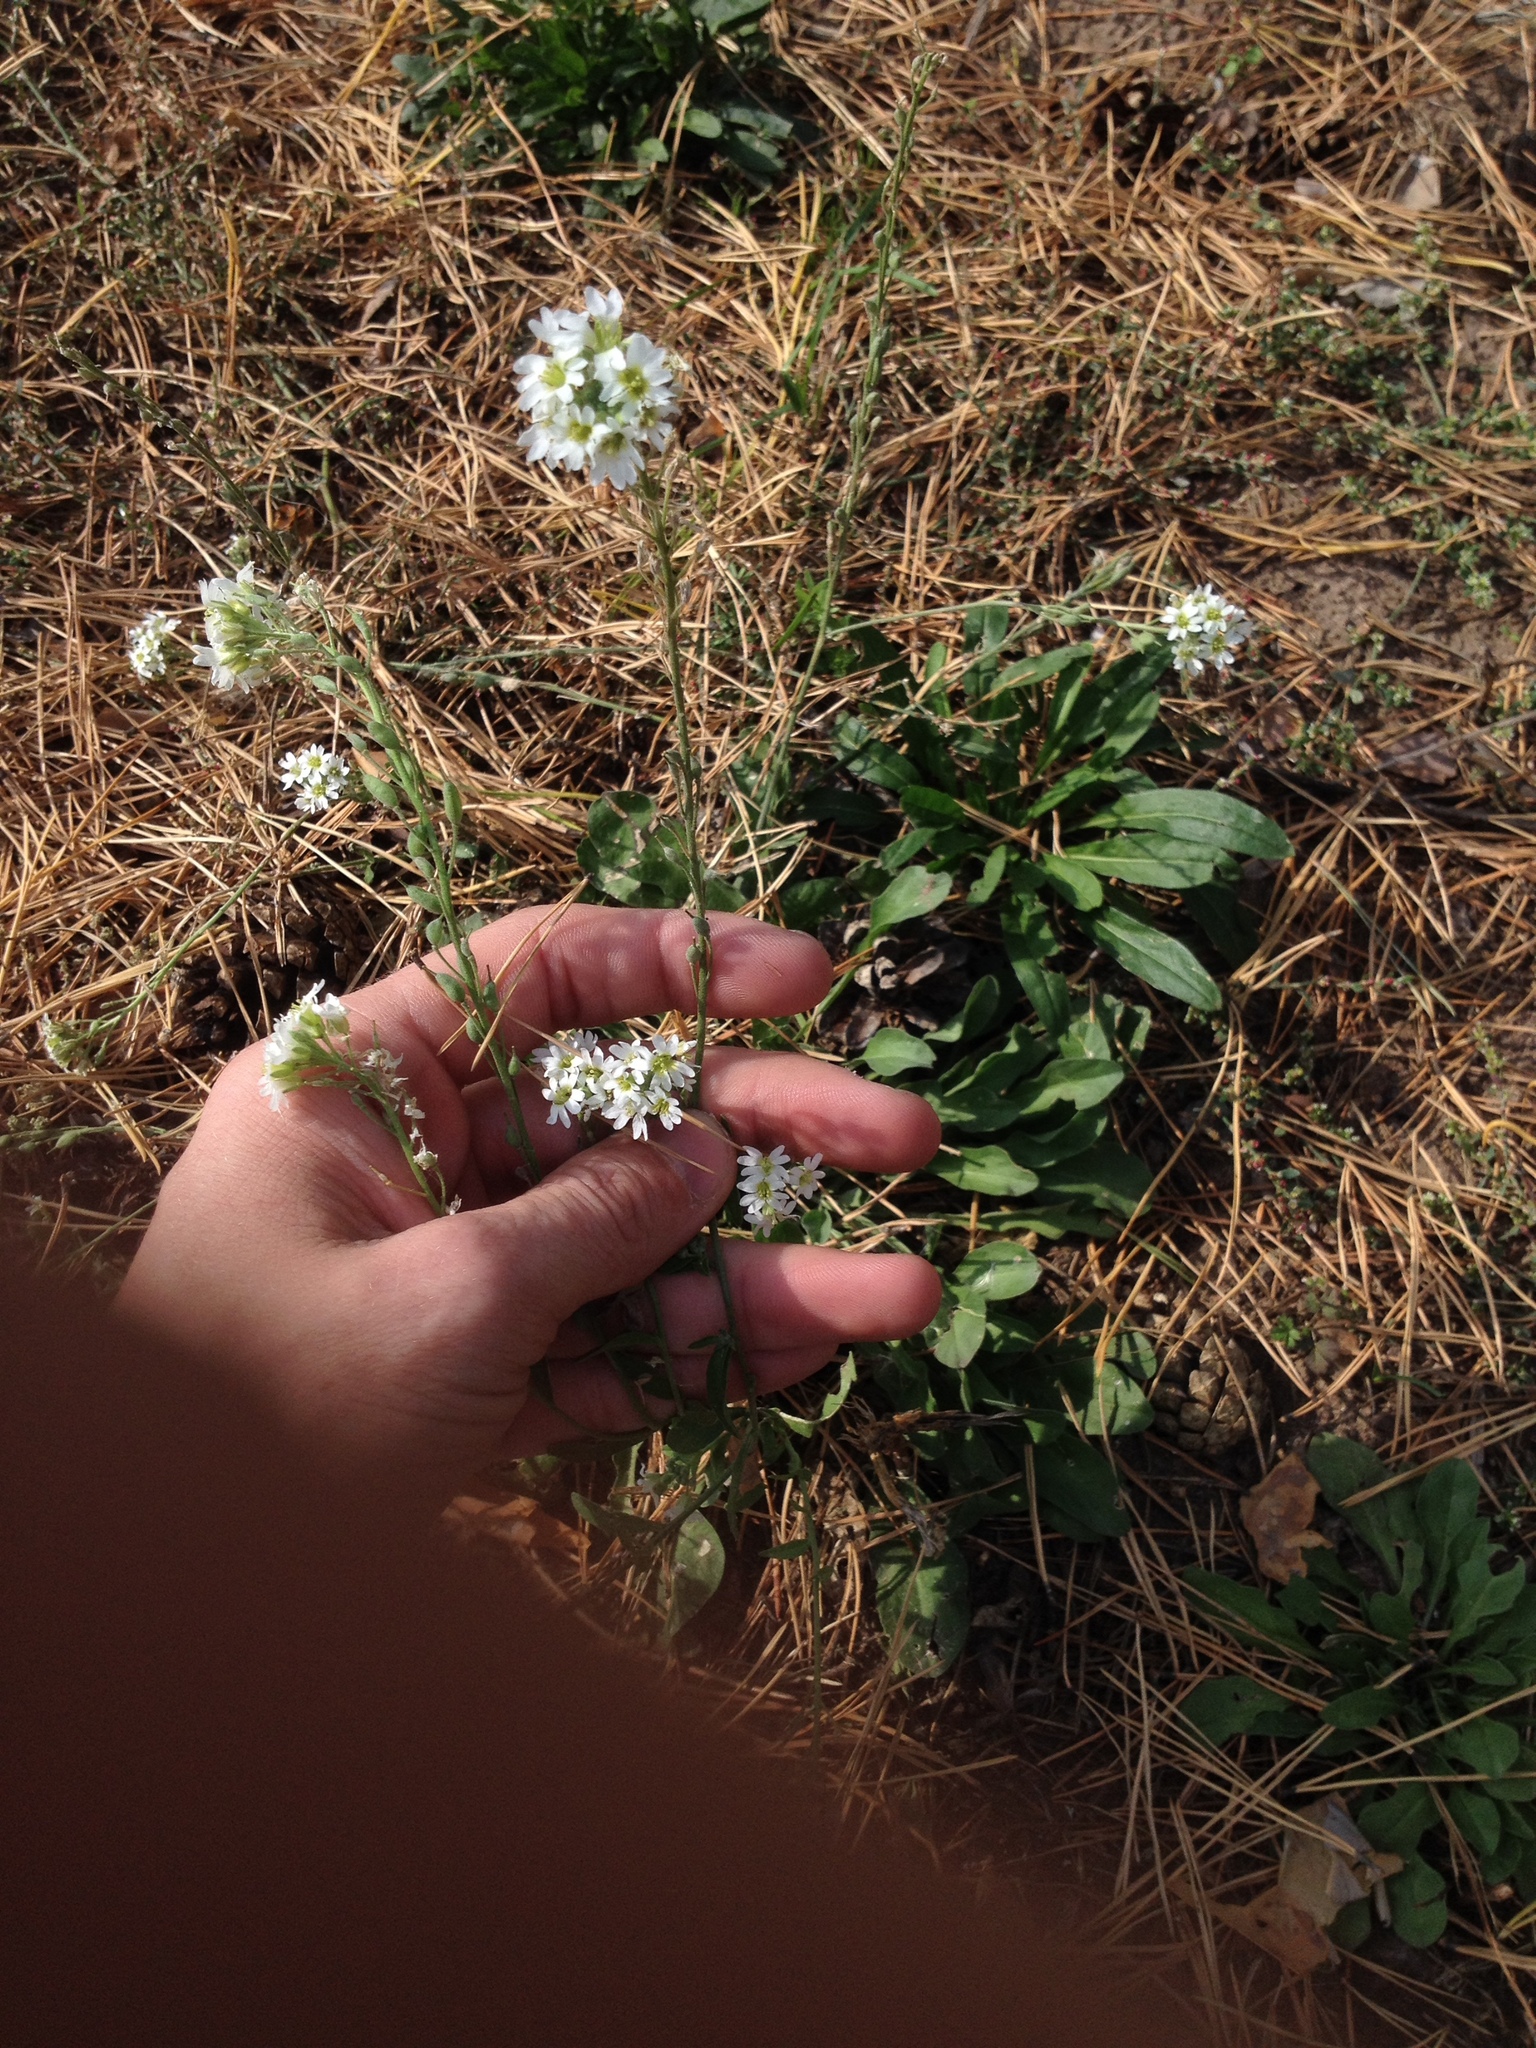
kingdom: Plantae
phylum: Tracheophyta
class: Magnoliopsida
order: Brassicales
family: Brassicaceae
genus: Berteroa
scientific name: Berteroa incana
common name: Hoary alison
